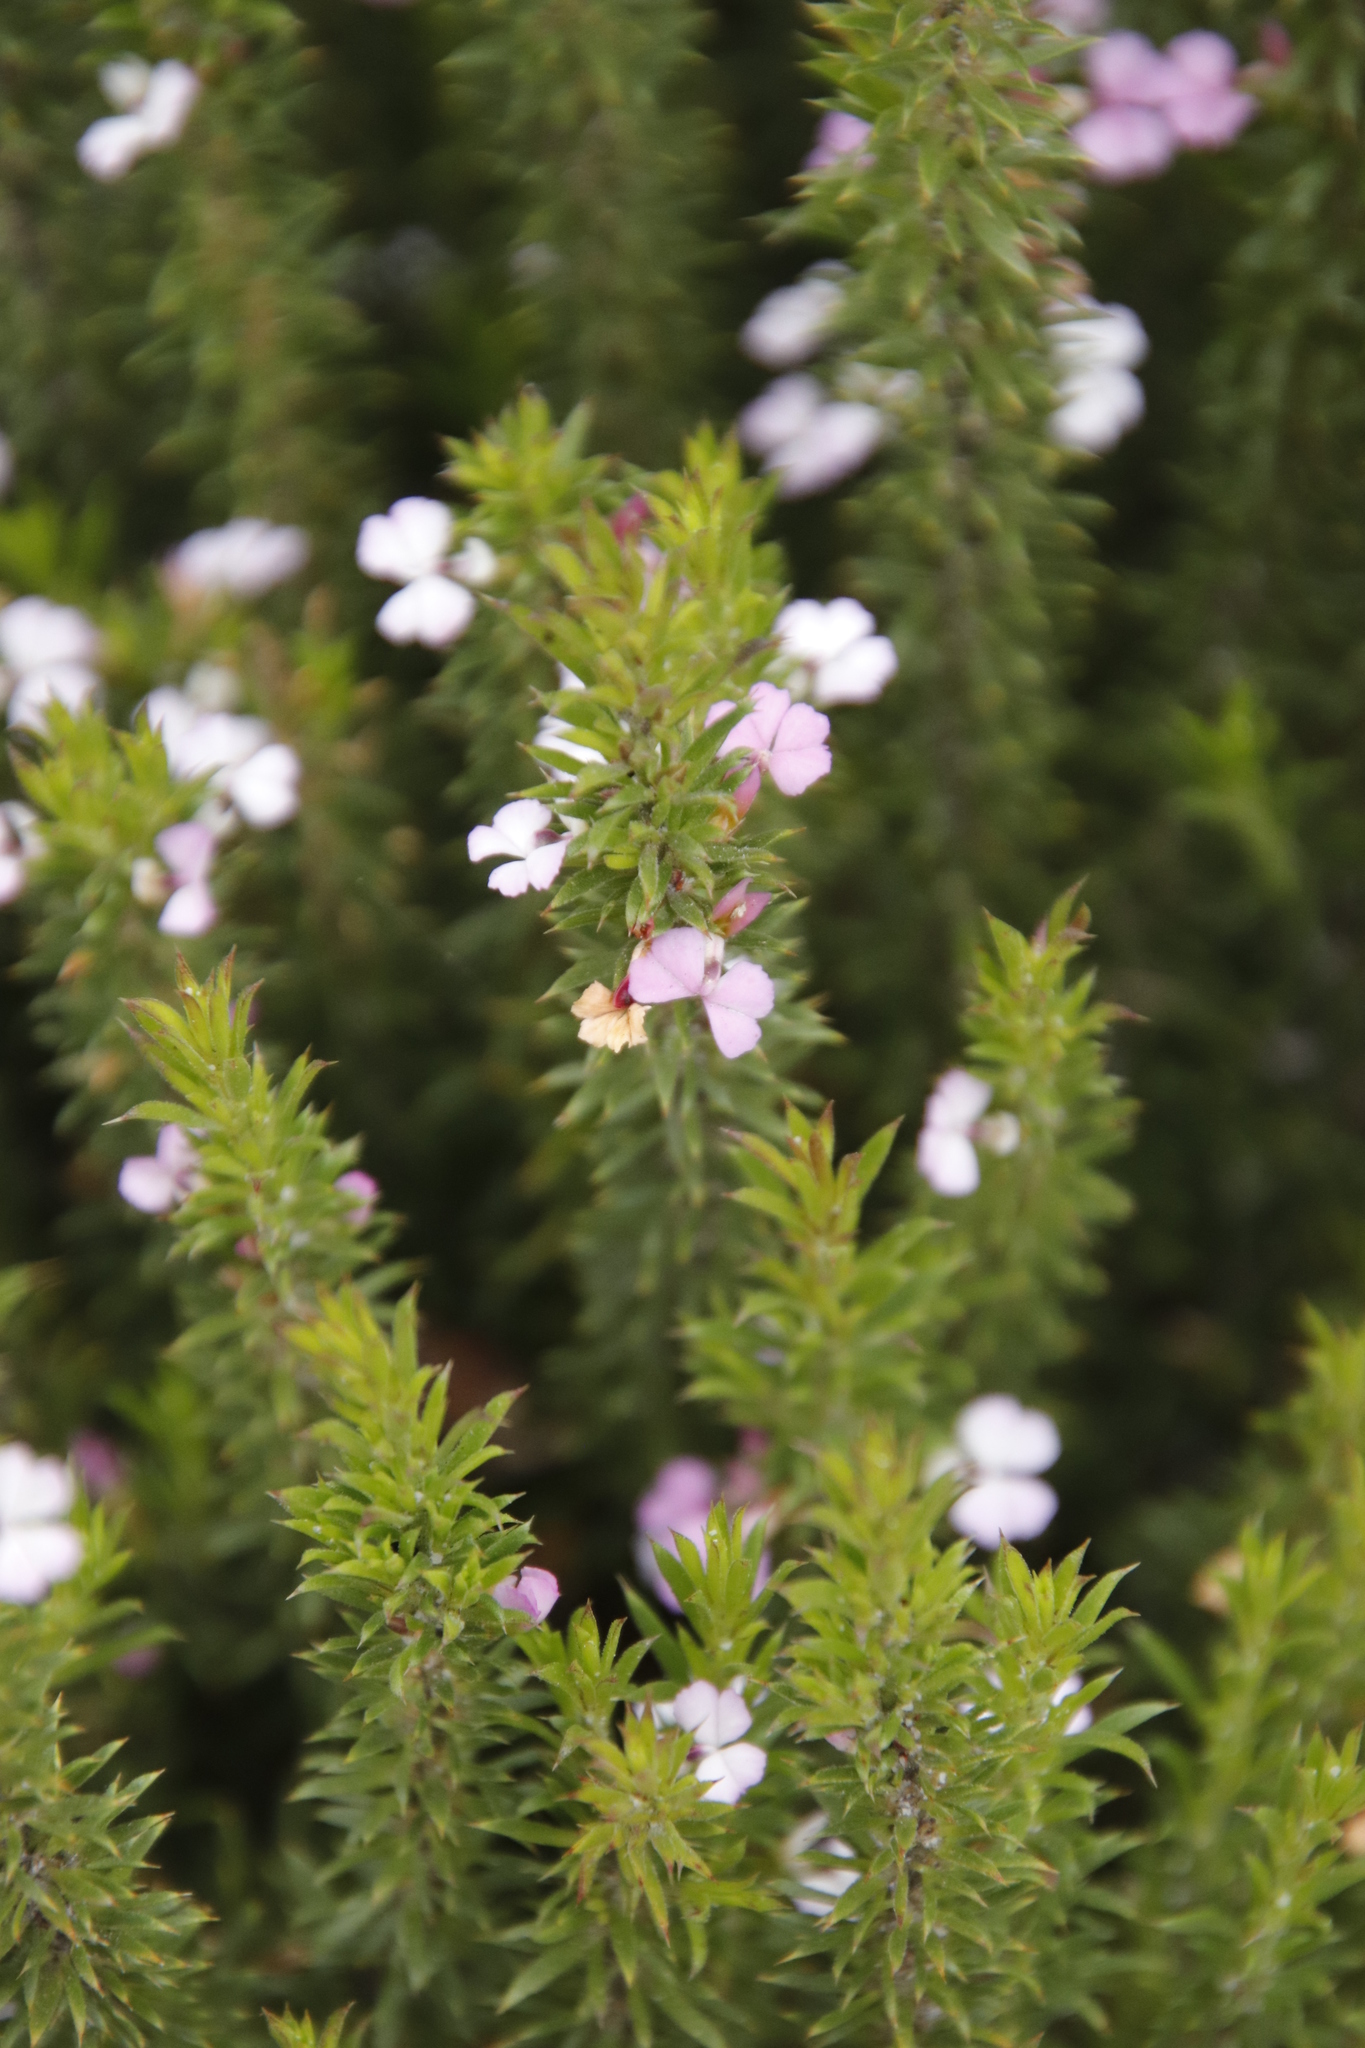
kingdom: Plantae
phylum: Tracheophyta
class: Magnoliopsida
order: Fabales
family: Polygalaceae
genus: Muraltia
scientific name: Muraltia satureioides
